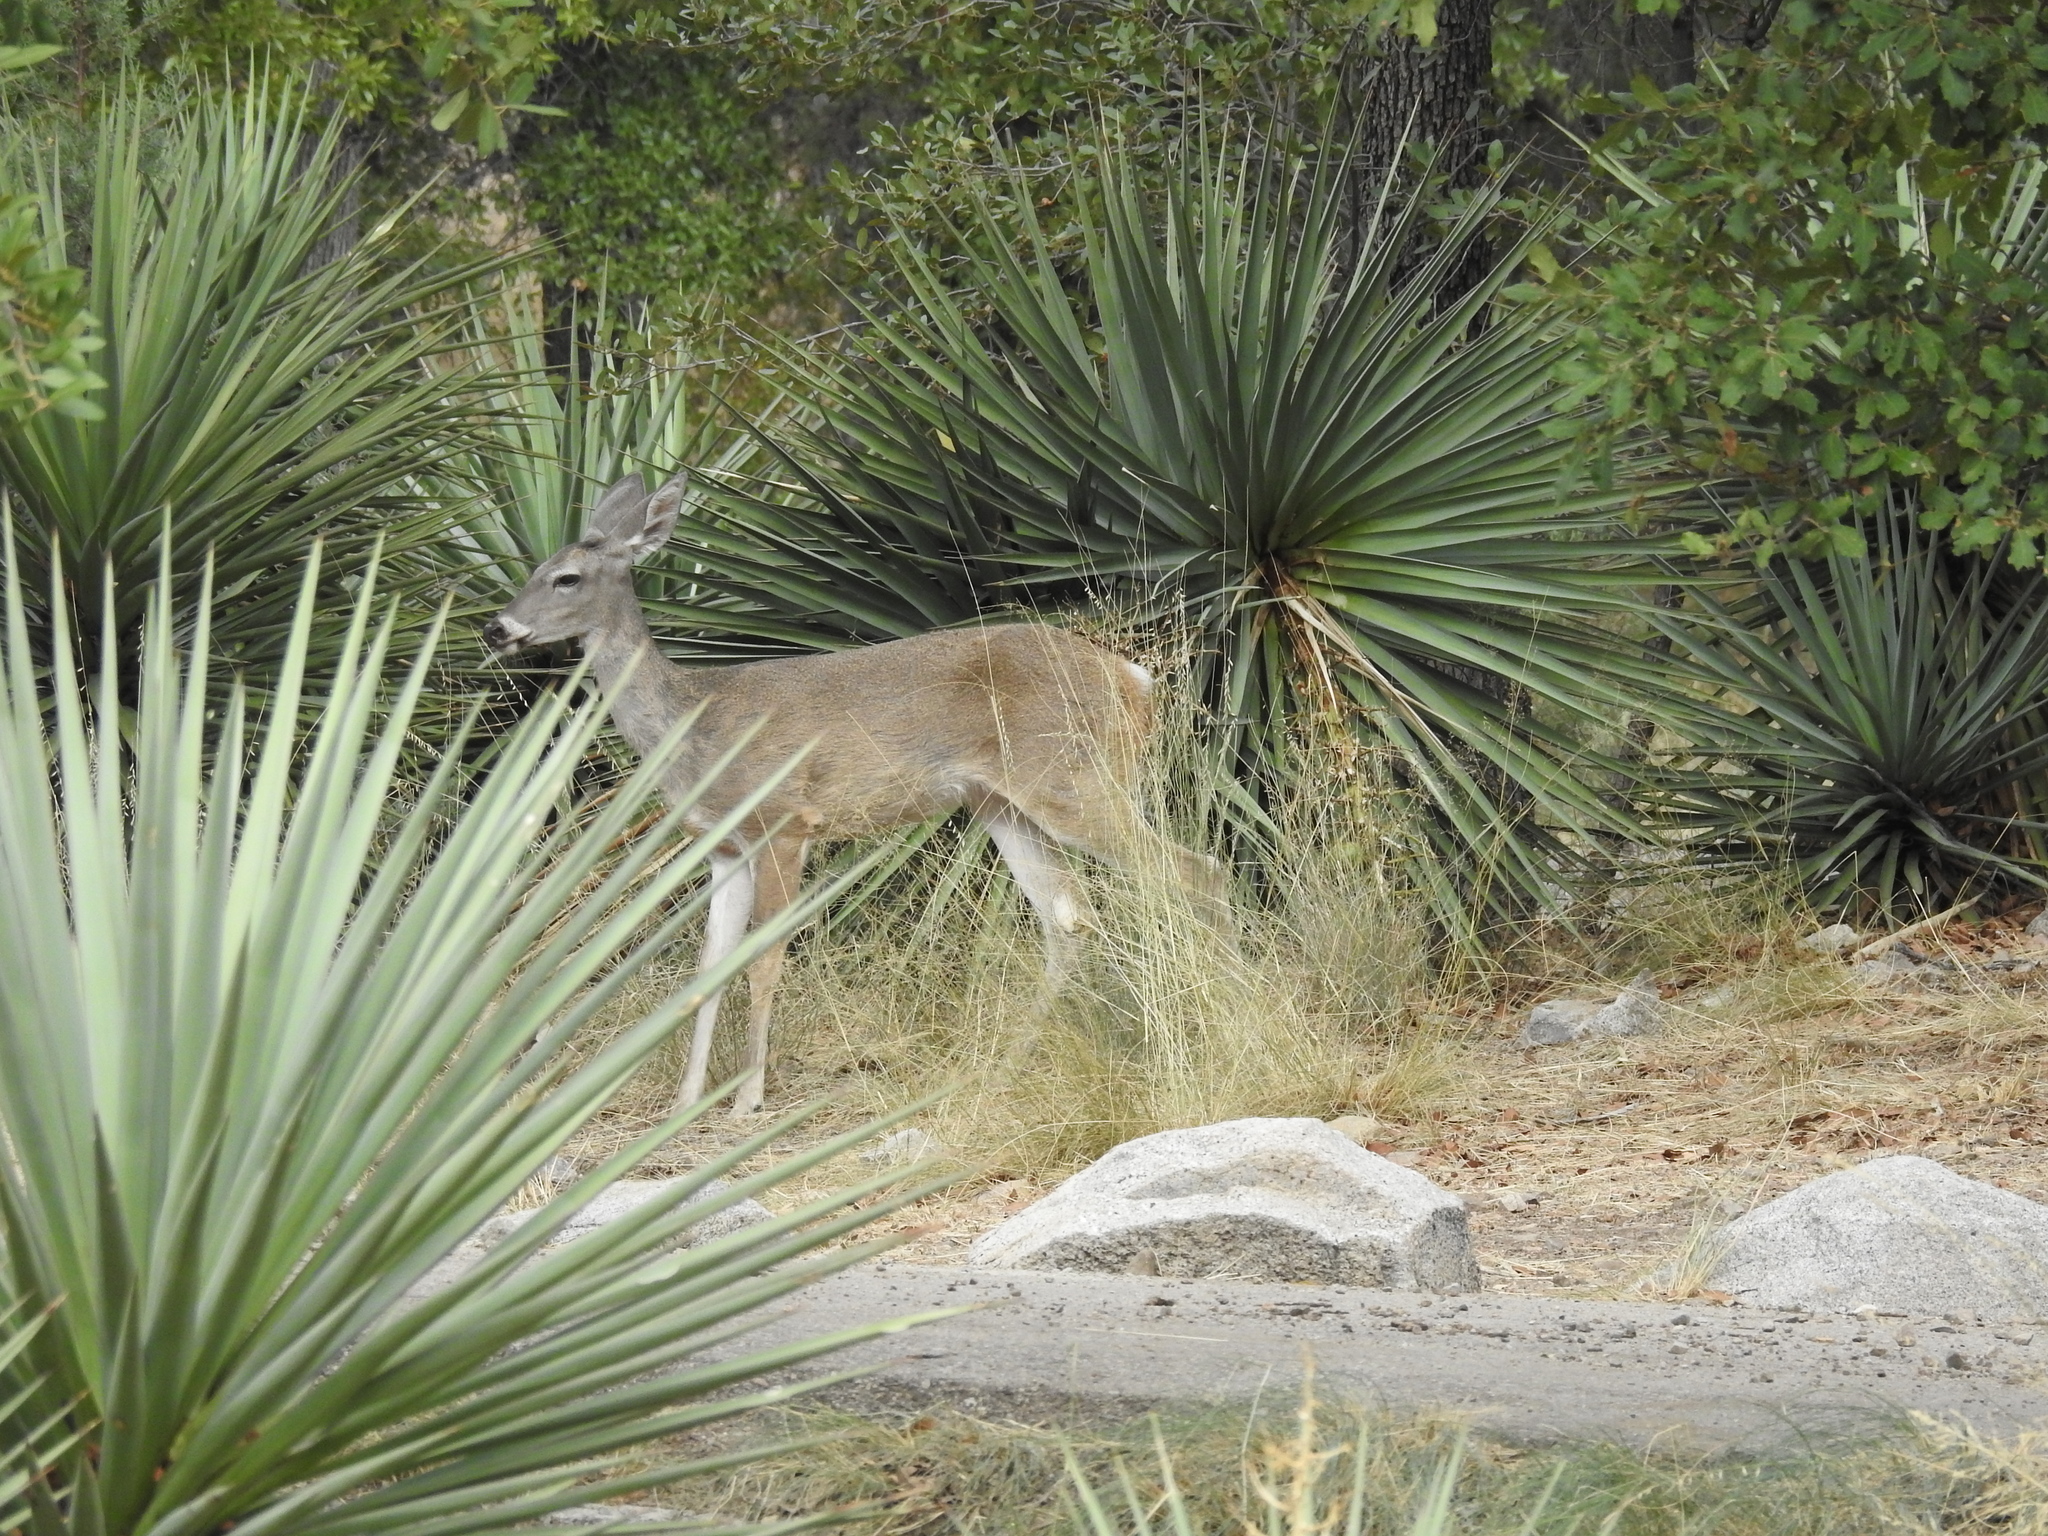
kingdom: Animalia
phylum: Chordata
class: Mammalia
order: Artiodactyla
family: Cervidae
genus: Odocoileus
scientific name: Odocoileus virginianus
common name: White-tailed deer
